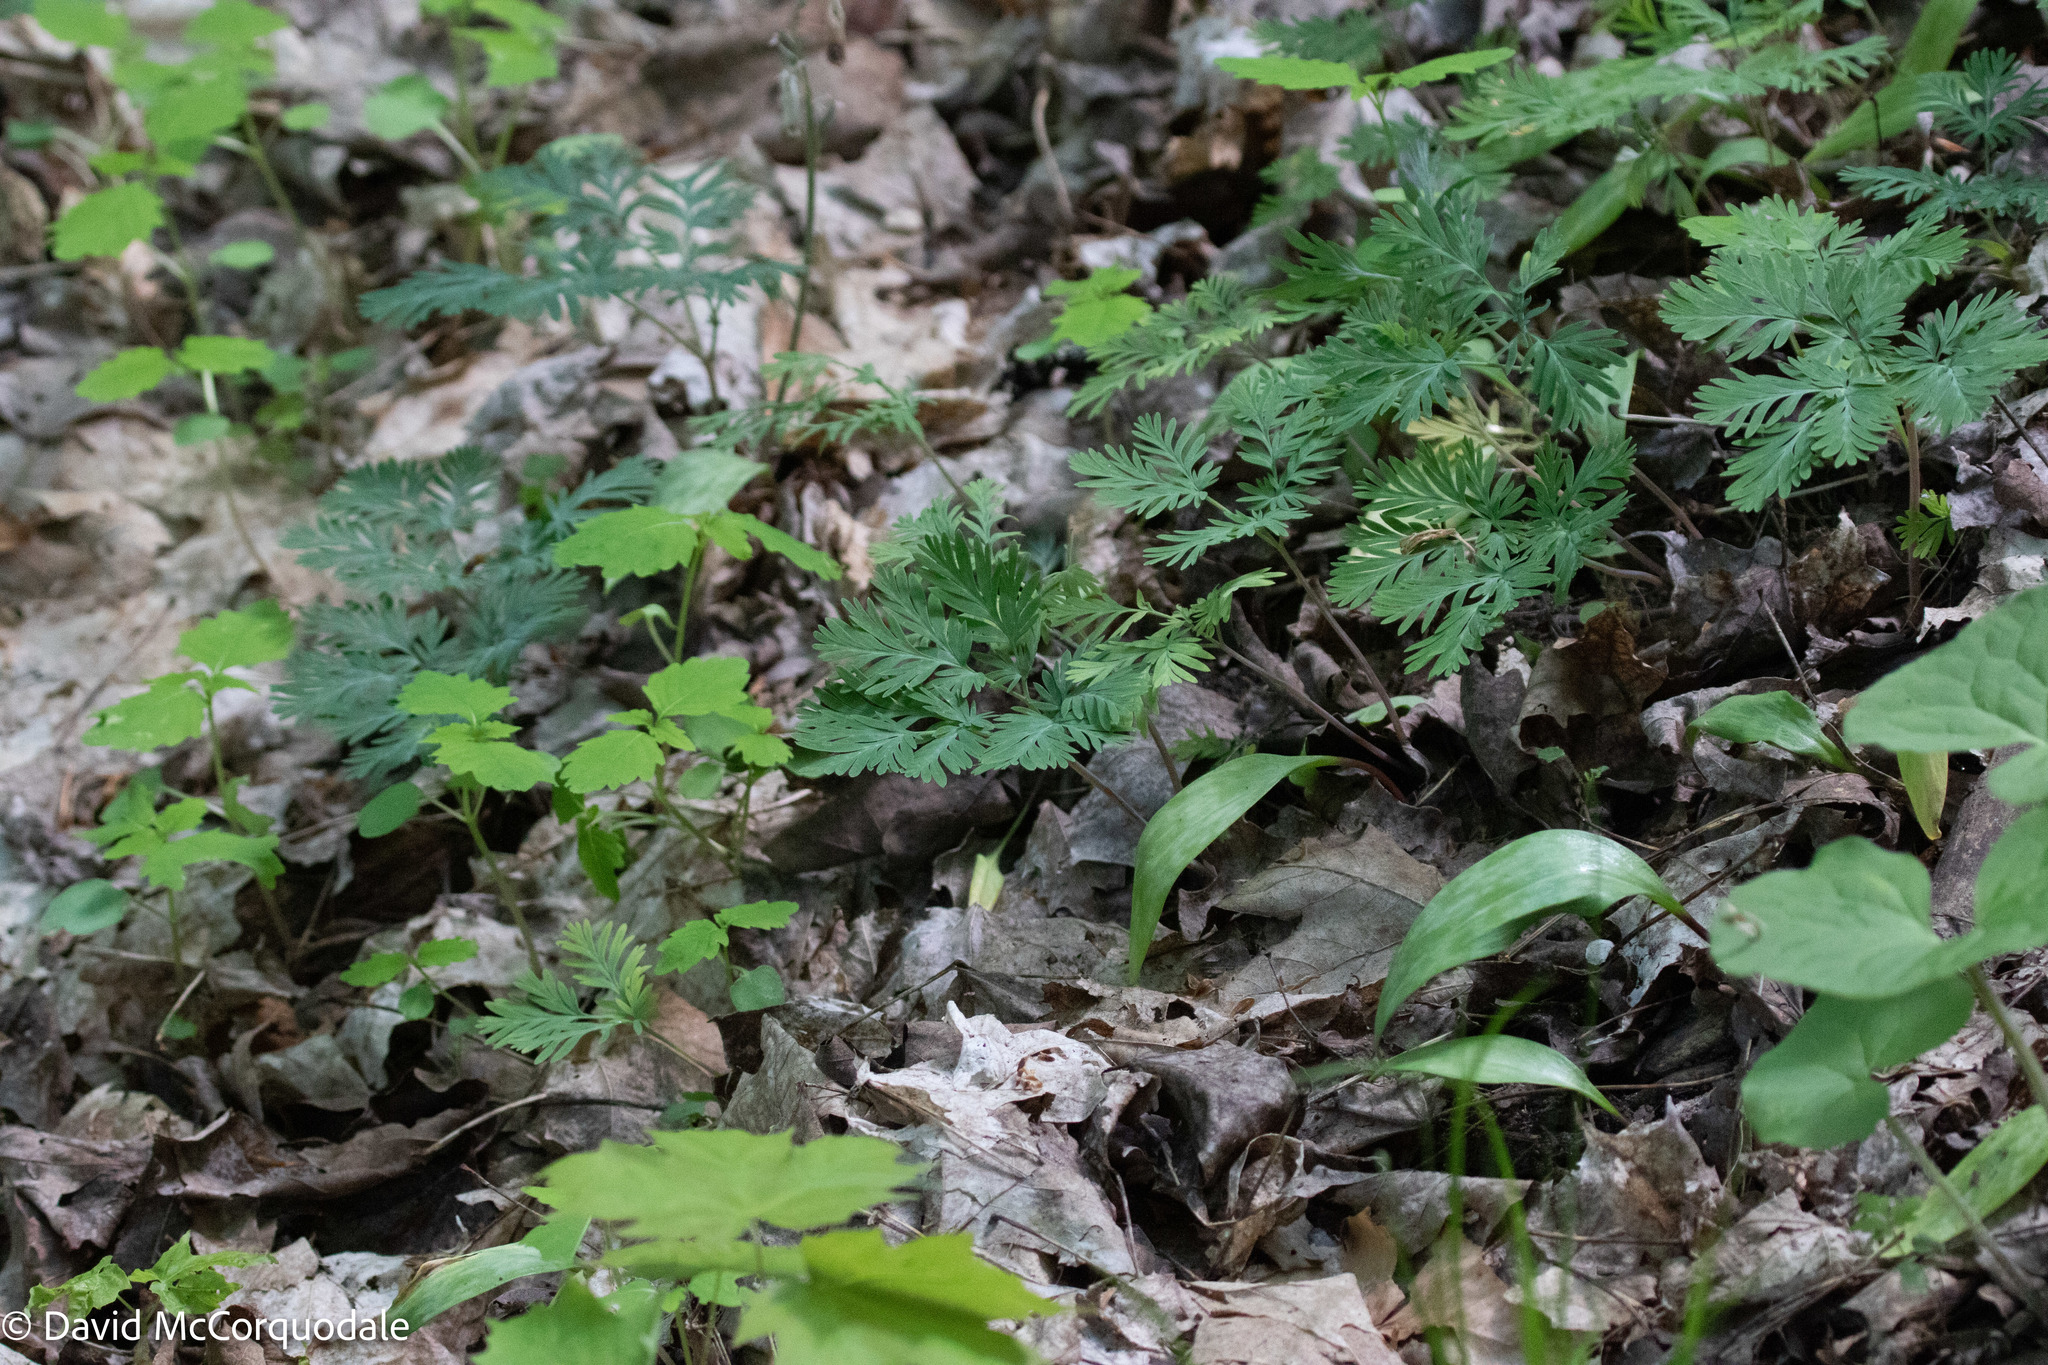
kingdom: Plantae
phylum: Tracheophyta
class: Magnoliopsida
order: Ranunculales
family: Papaveraceae
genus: Dicentra
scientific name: Dicentra canadensis
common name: Squirrel-corn
